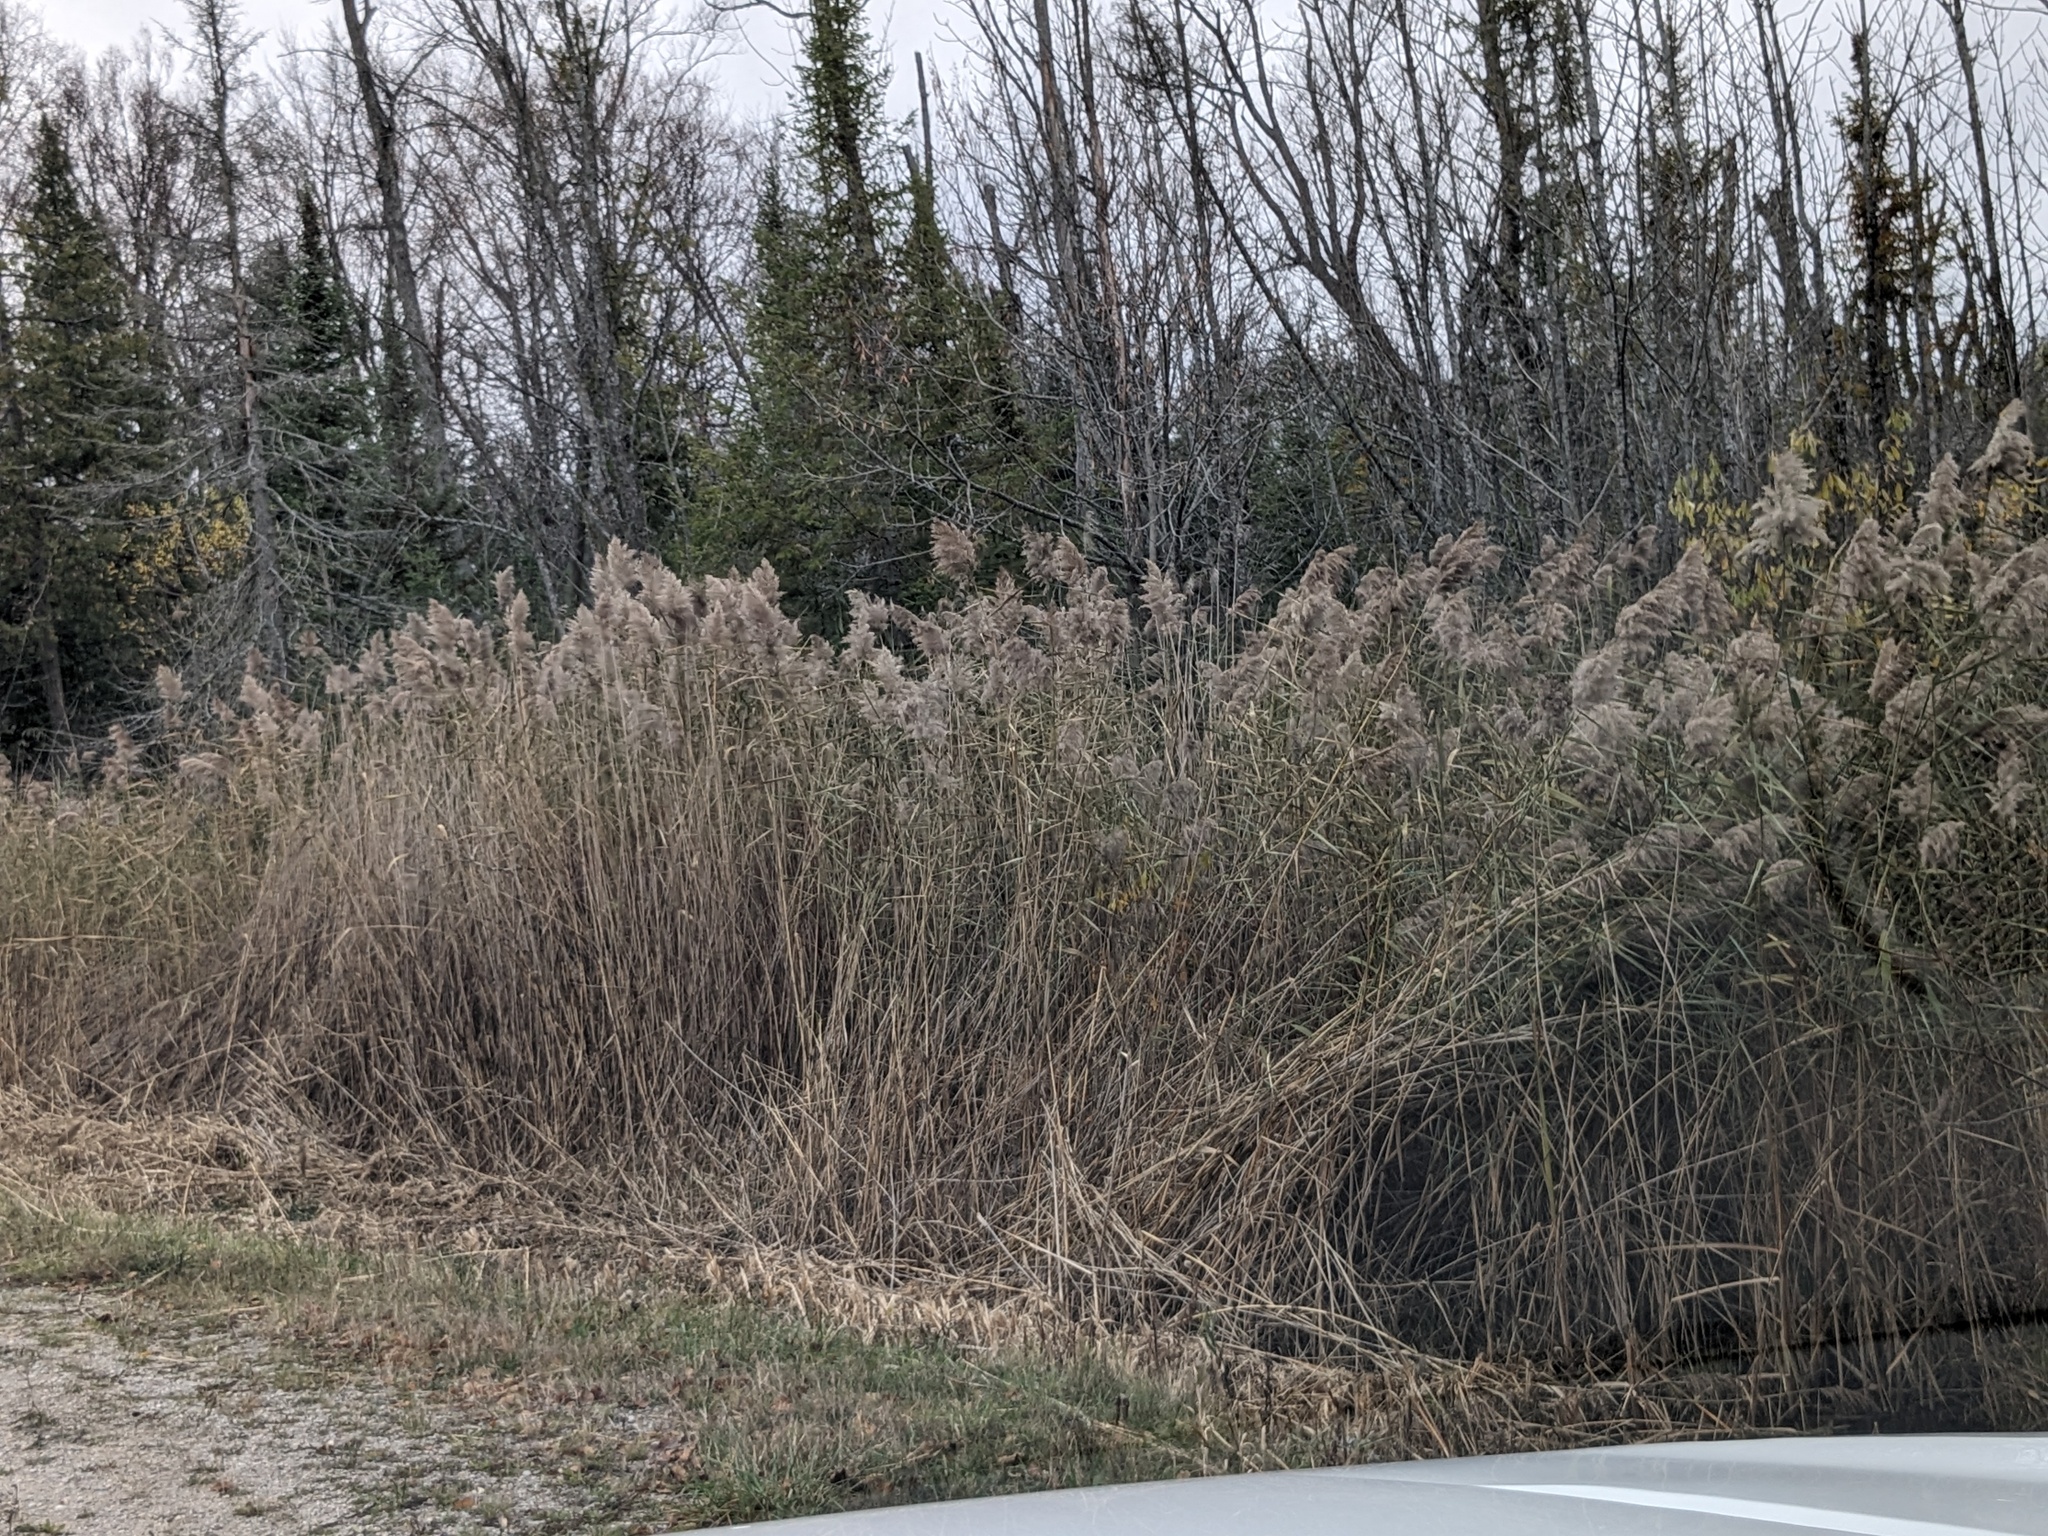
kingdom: Plantae
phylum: Tracheophyta
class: Liliopsida
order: Poales
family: Poaceae
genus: Phragmites
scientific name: Phragmites australis
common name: Common reed
